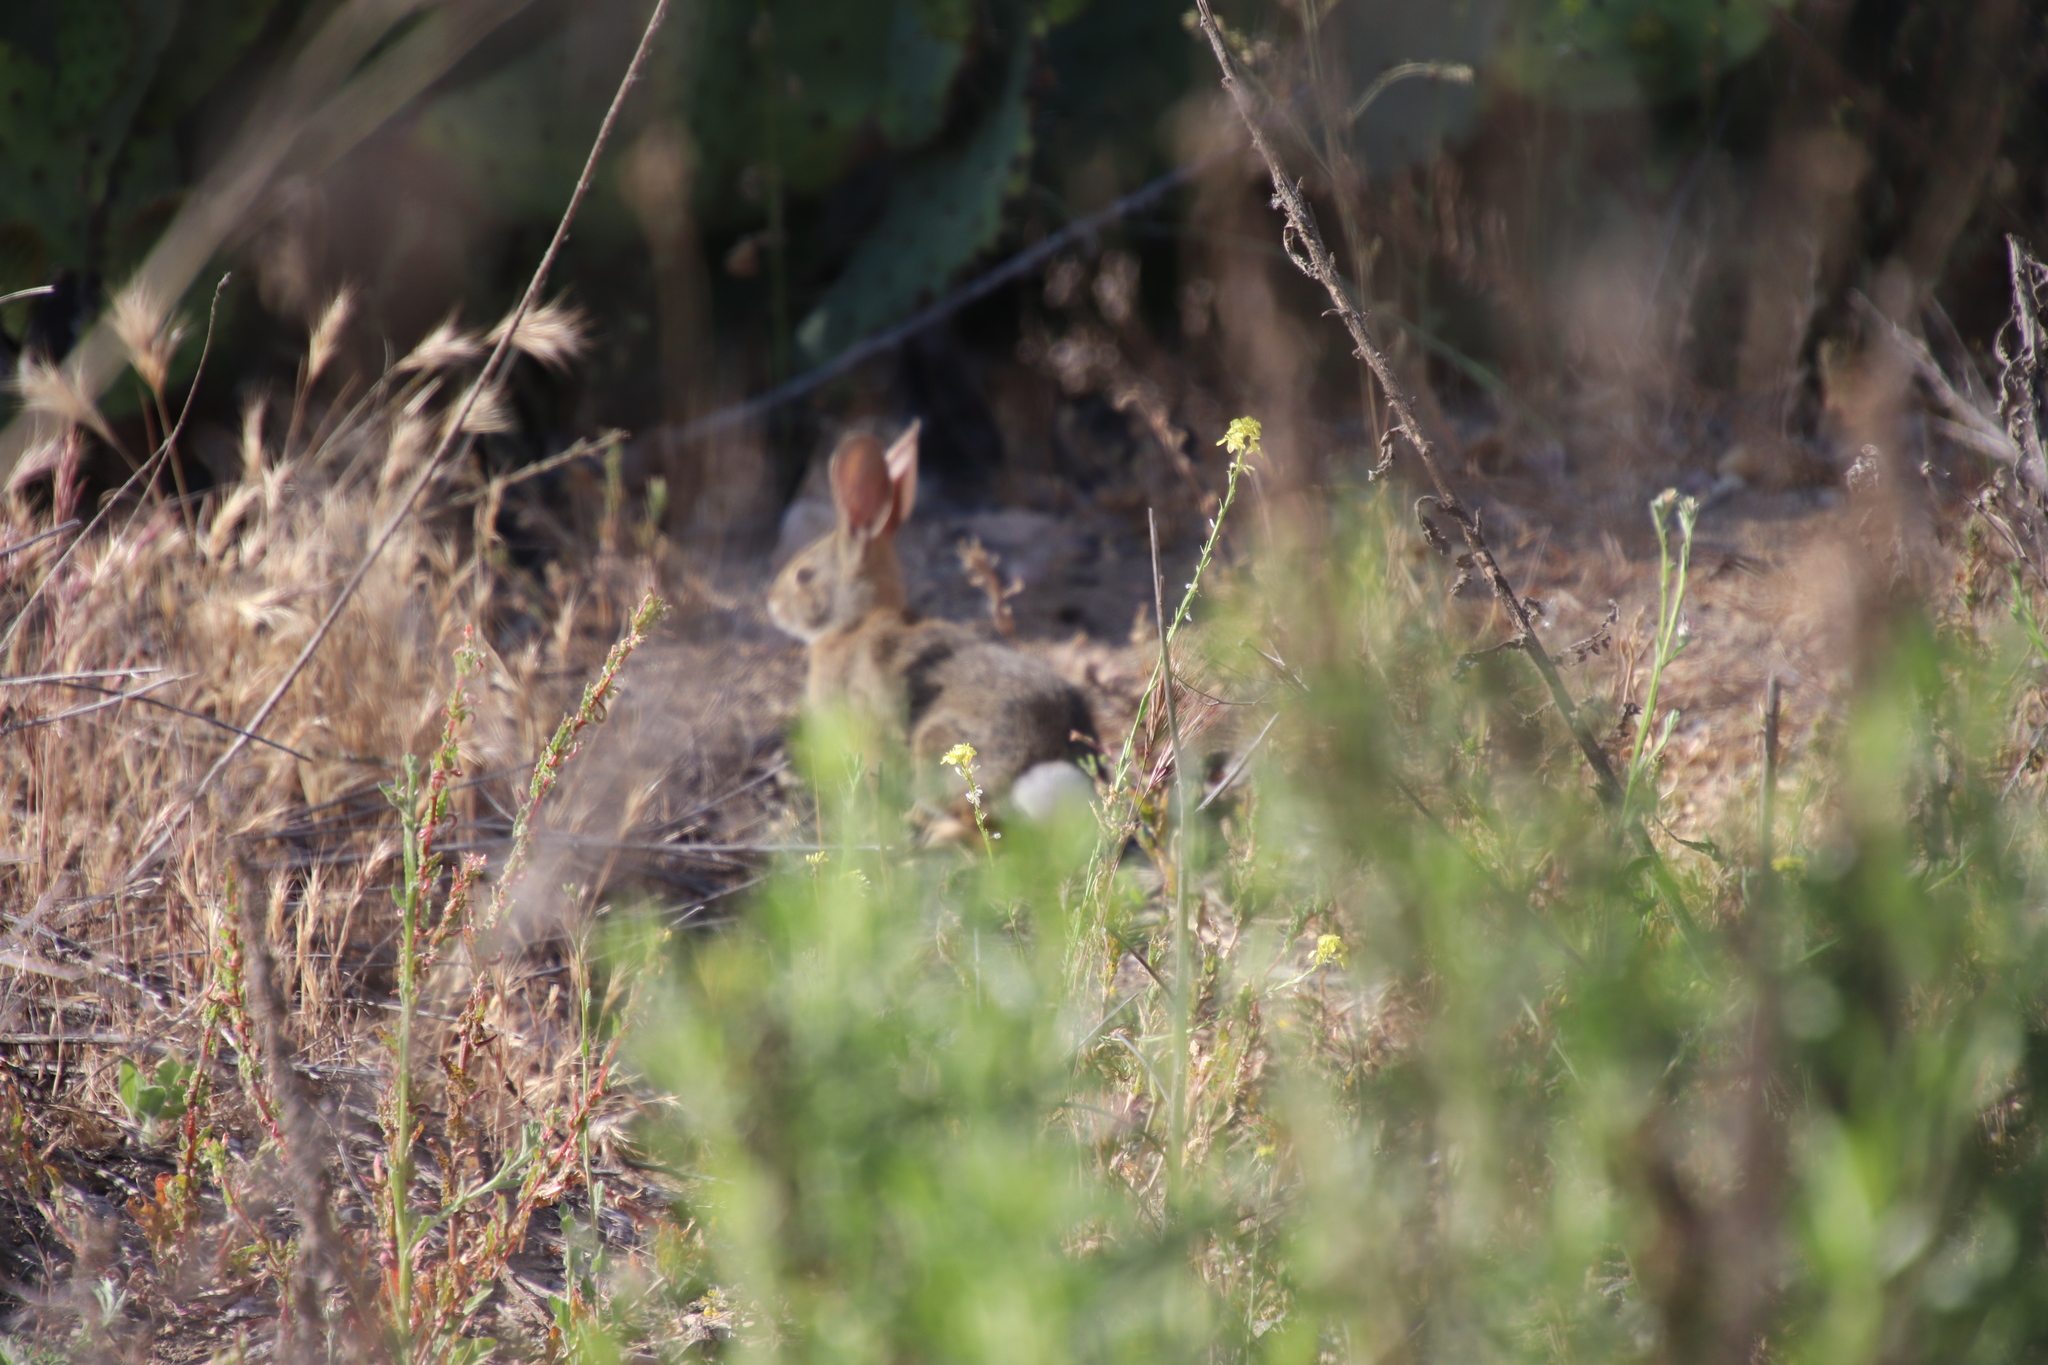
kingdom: Animalia
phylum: Chordata
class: Mammalia
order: Lagomorpha
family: Leporidae
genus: Sylvilagus
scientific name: Sylvilagus audubonii
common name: Desert cottontail
